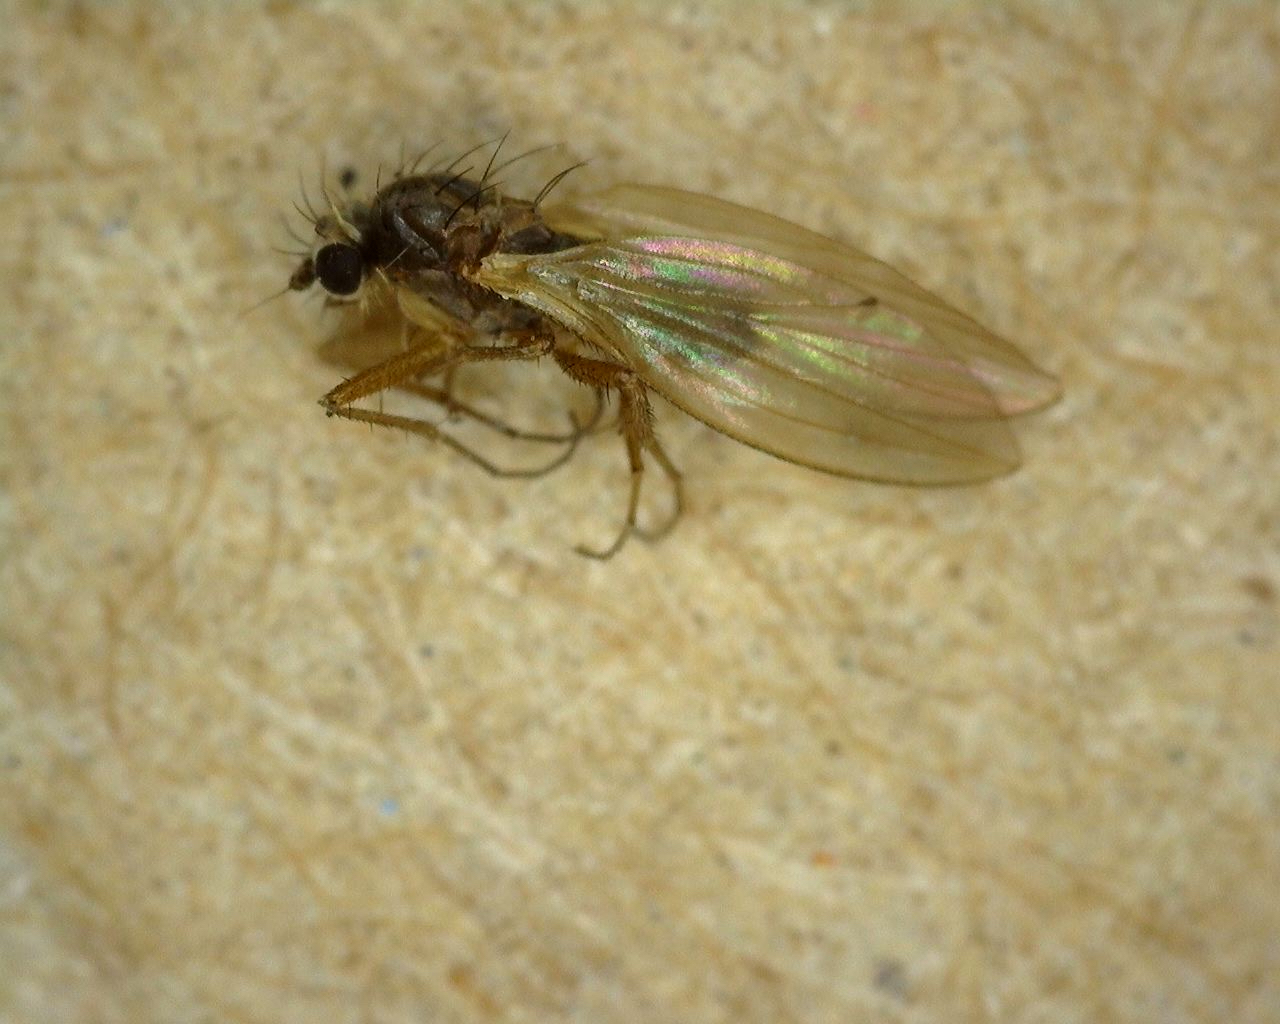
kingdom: Animalia
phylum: Arthropoda
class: Insecta
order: Diptera
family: Lonchopteridae
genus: Lonchoptera
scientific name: Lonchoptera bifurcata
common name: Spear-winged fly
